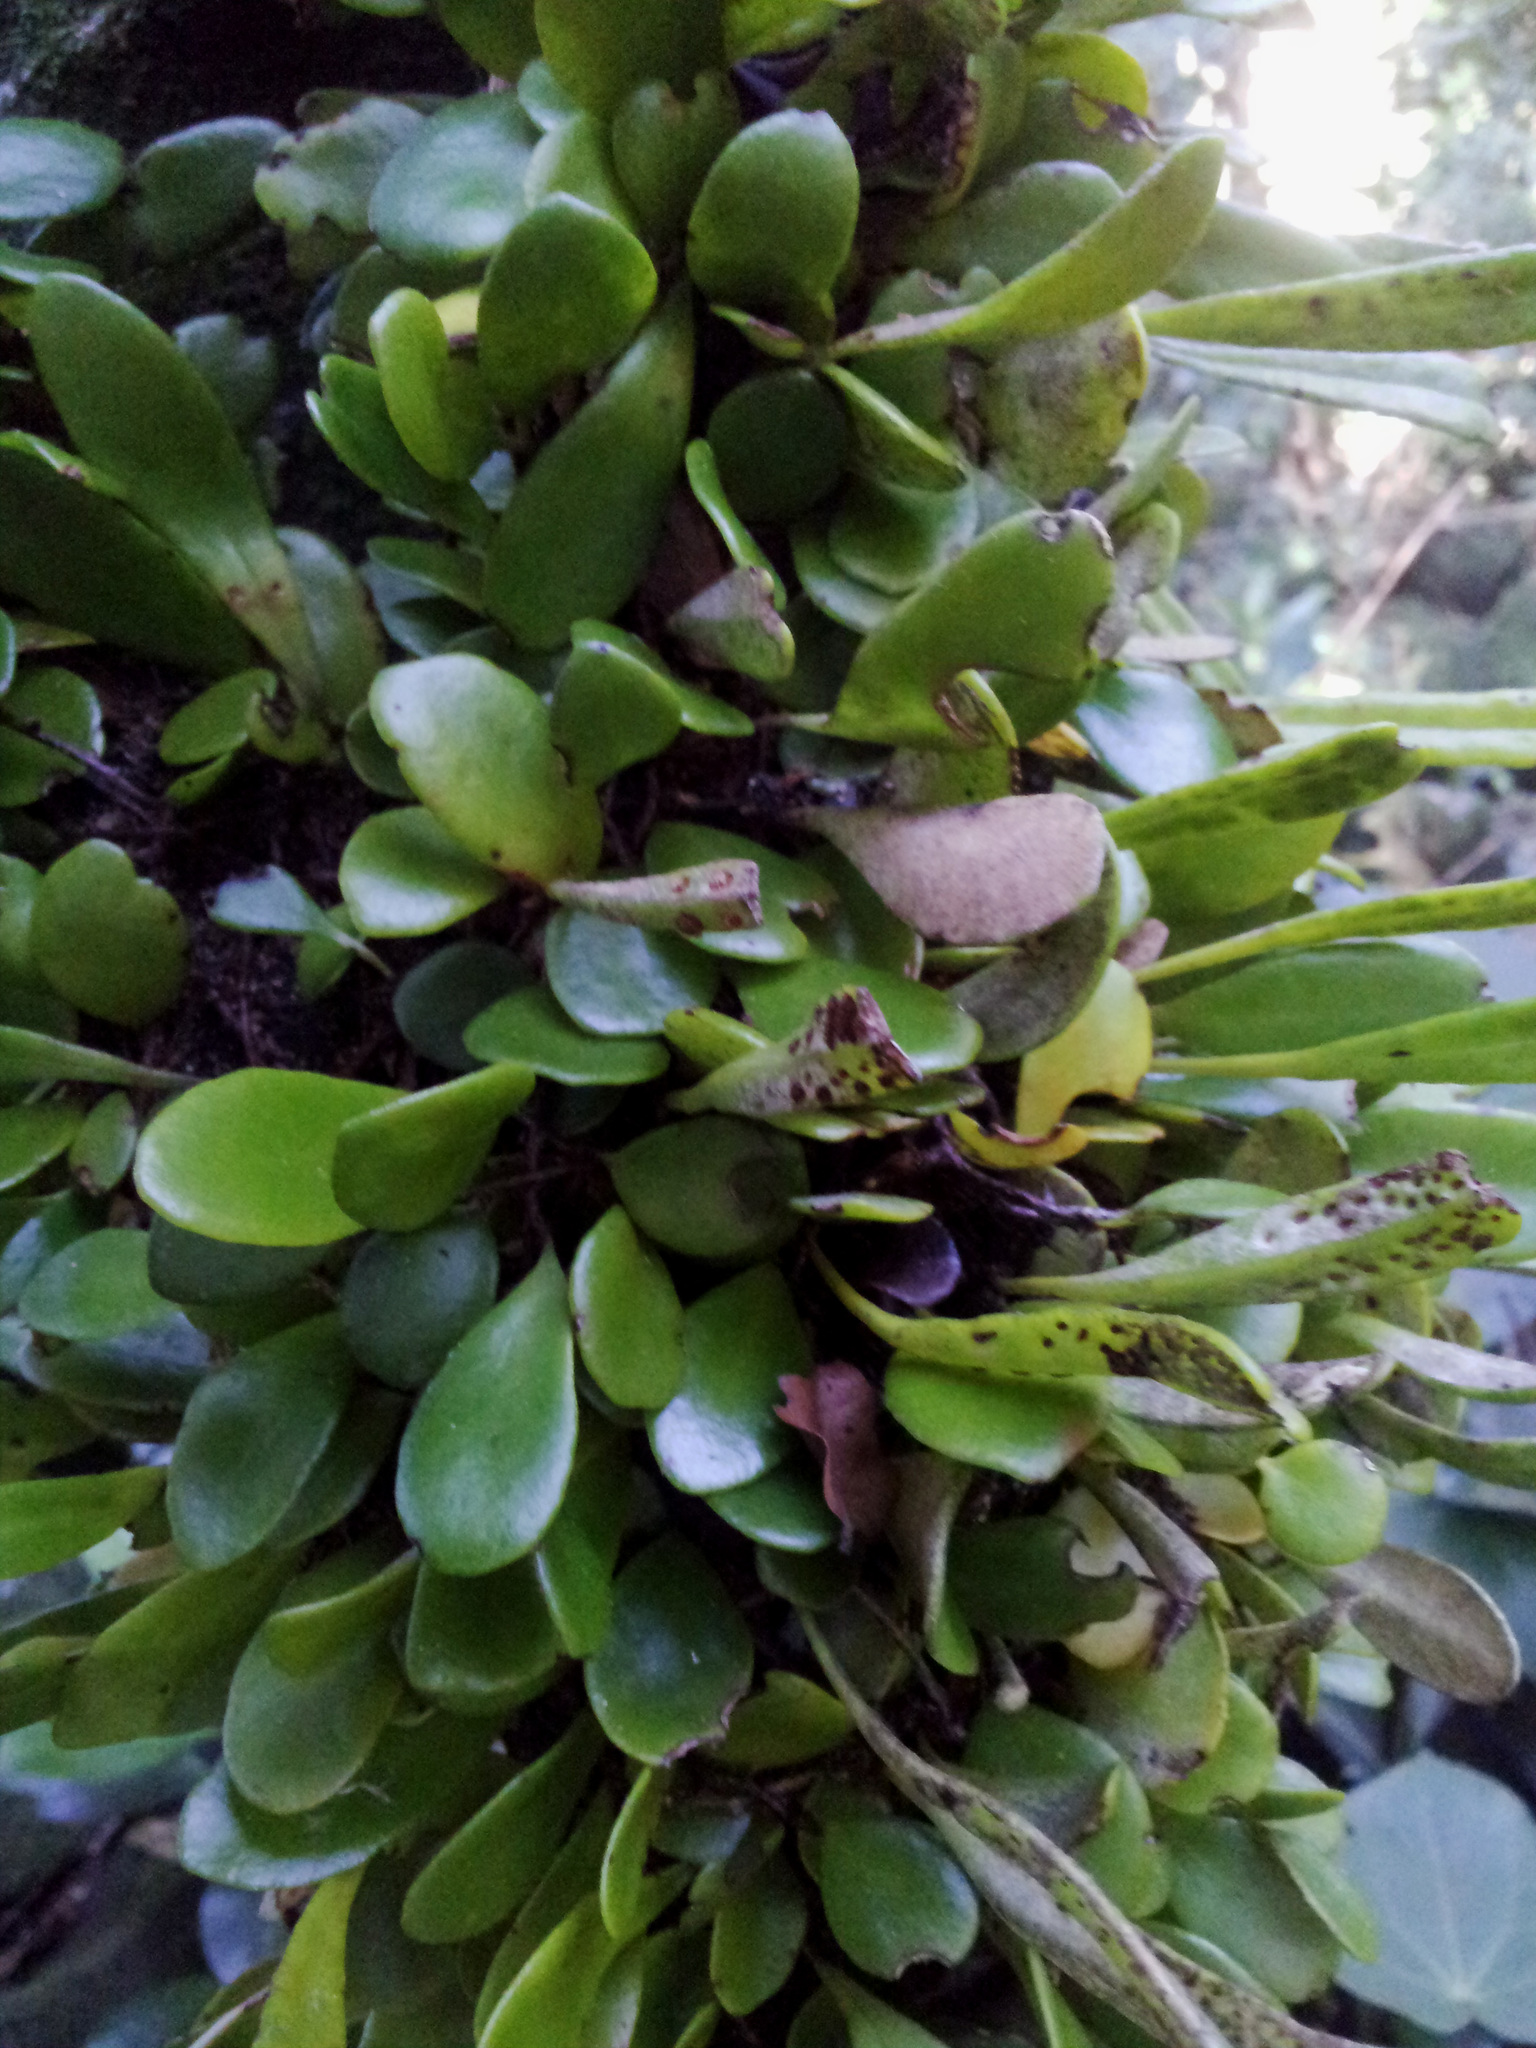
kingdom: Plantae
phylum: Tracheophyta
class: Polypodiopsida
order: Polypodiales
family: Polypodiaceae
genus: Pyrrosia
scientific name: Pyrrosia eleagnifolia
